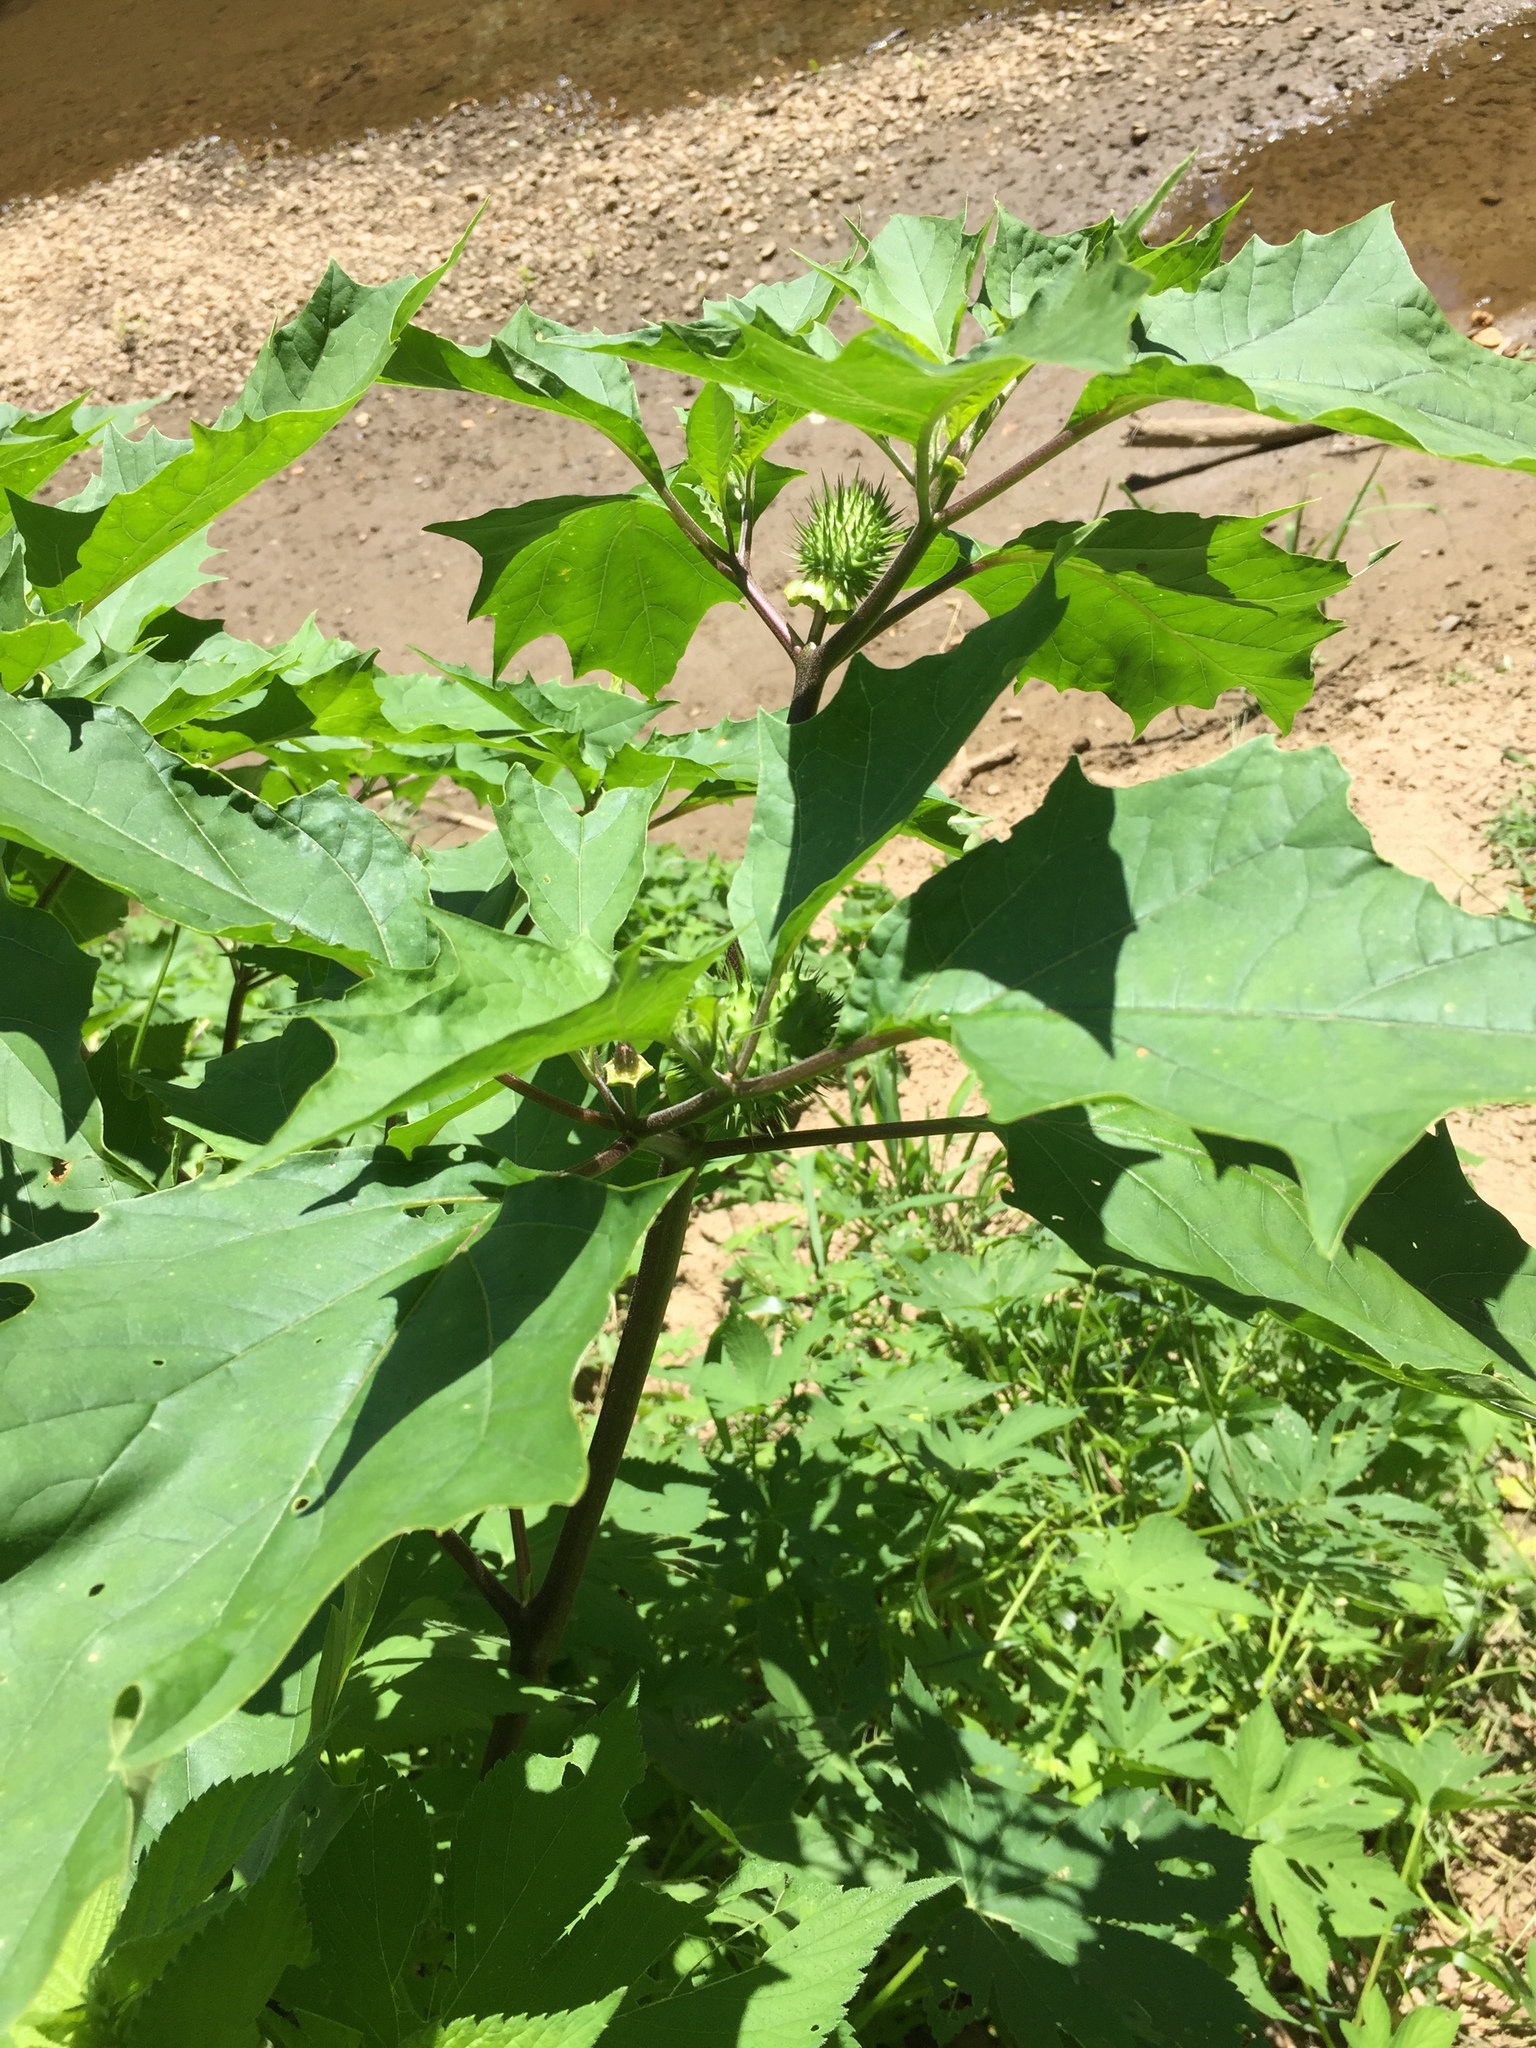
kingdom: Plantae
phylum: Tracheophyta
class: Magnoliopsida
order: Solanales
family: Solanaceae
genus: Datura
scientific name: Datura stramonium
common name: Thorn-apple
